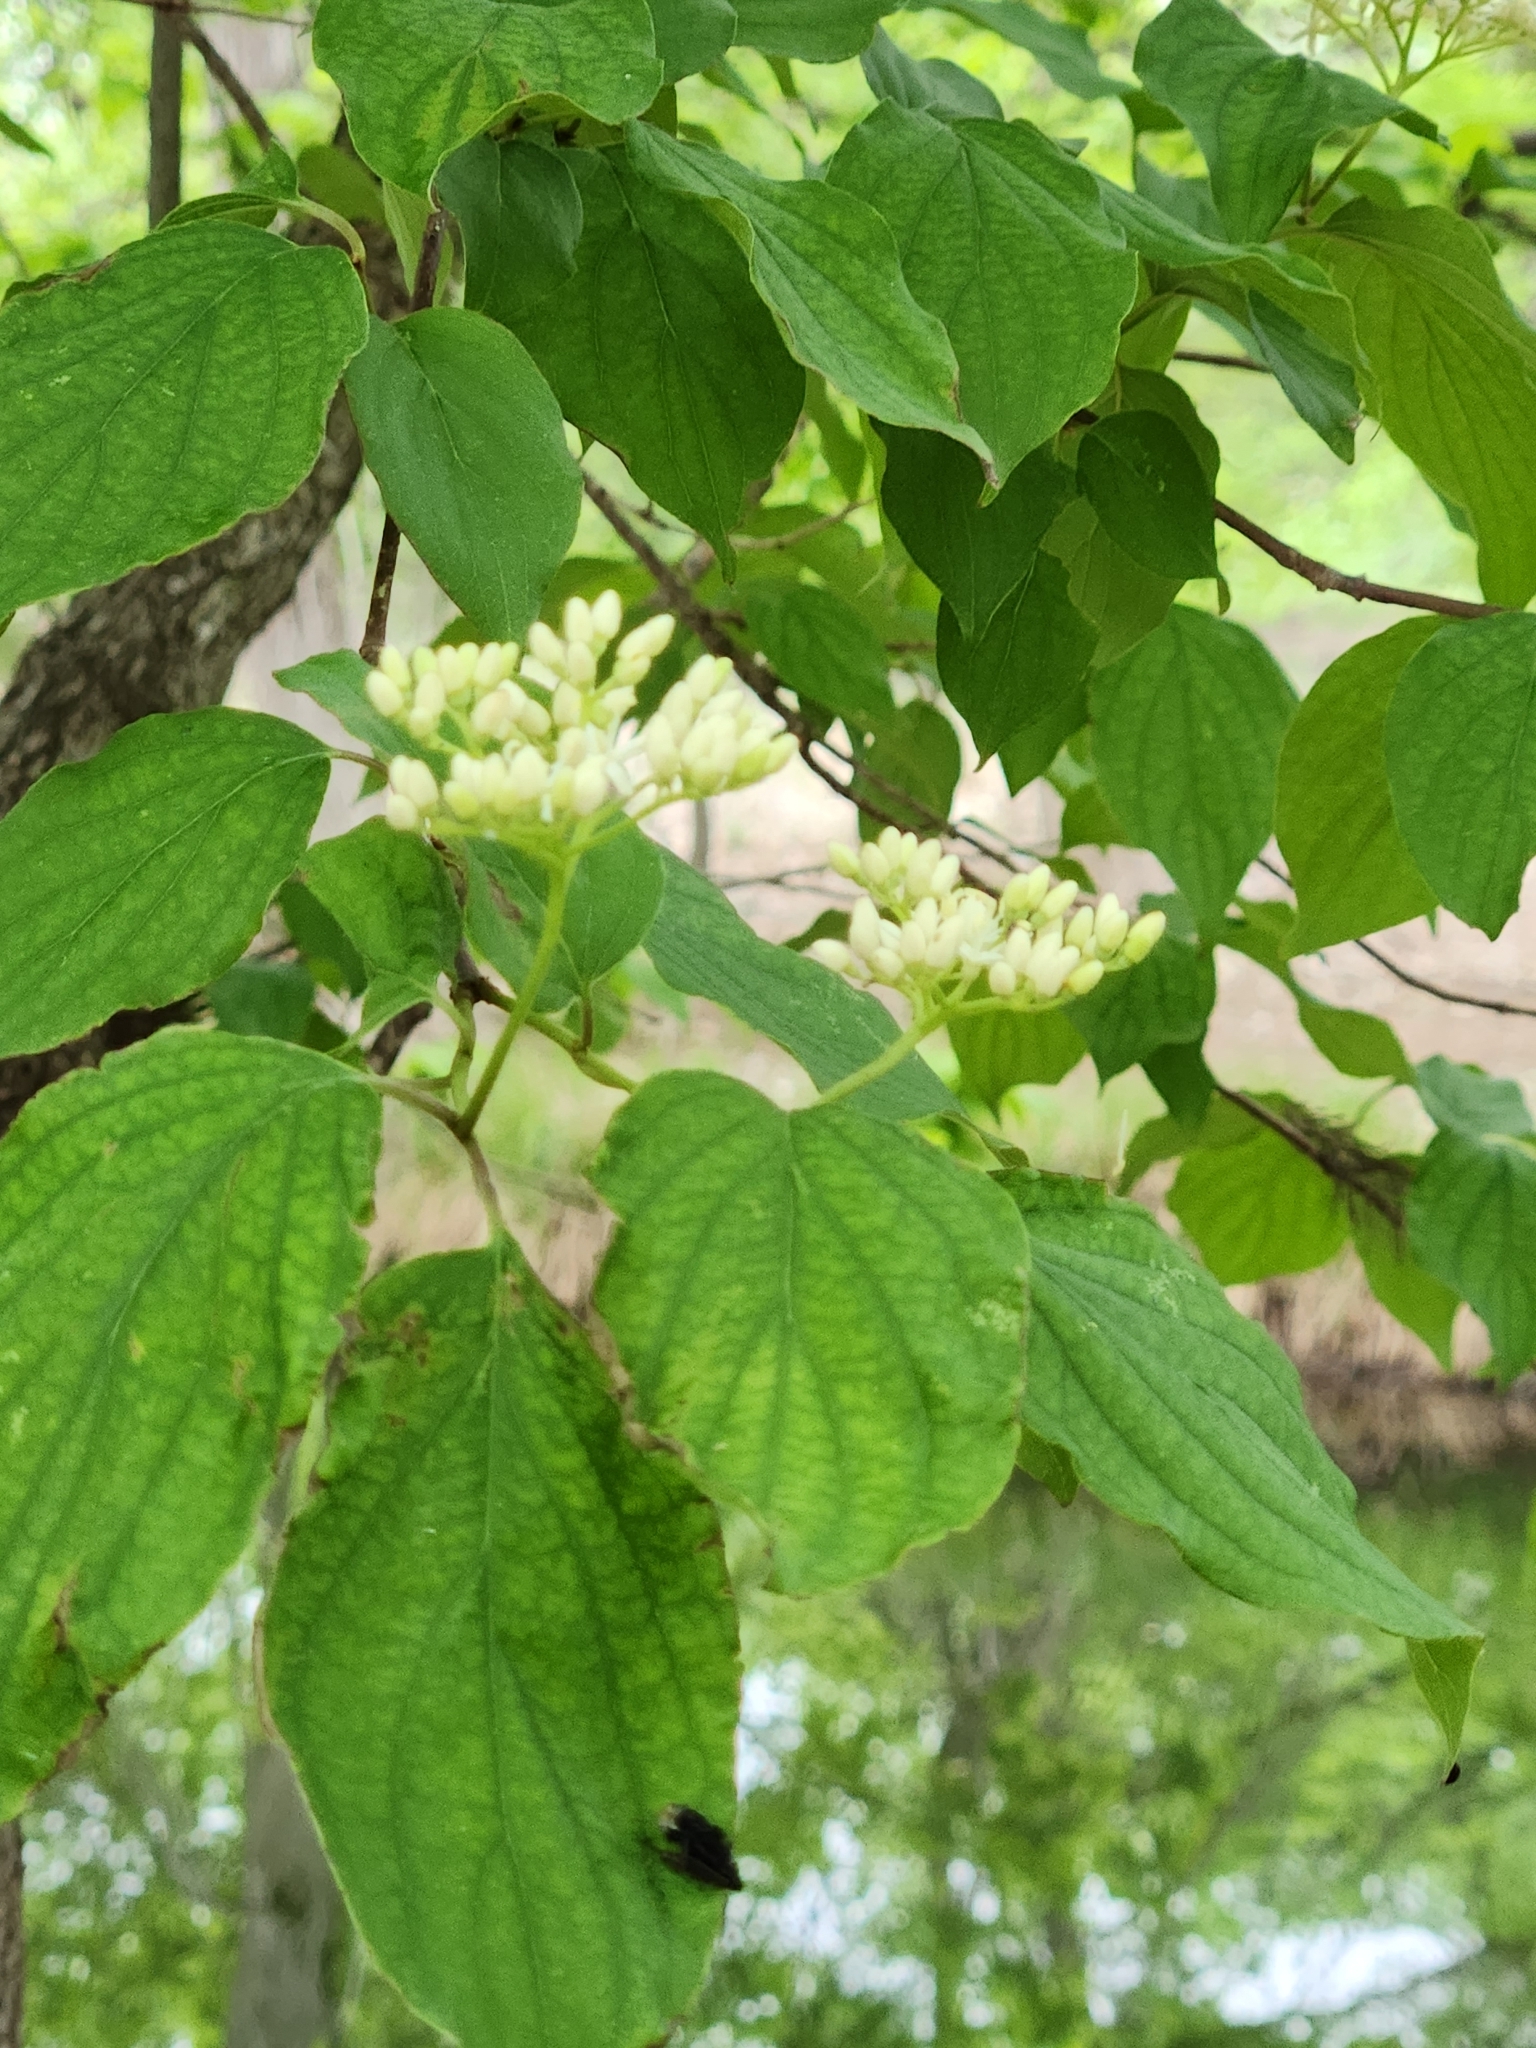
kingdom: Plantae
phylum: Tracheophyta
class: Magnoliopsida
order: Cornales
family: Cornaceae
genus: Cornus
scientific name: Cornus drummondii
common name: Rough-leaf dogwood
